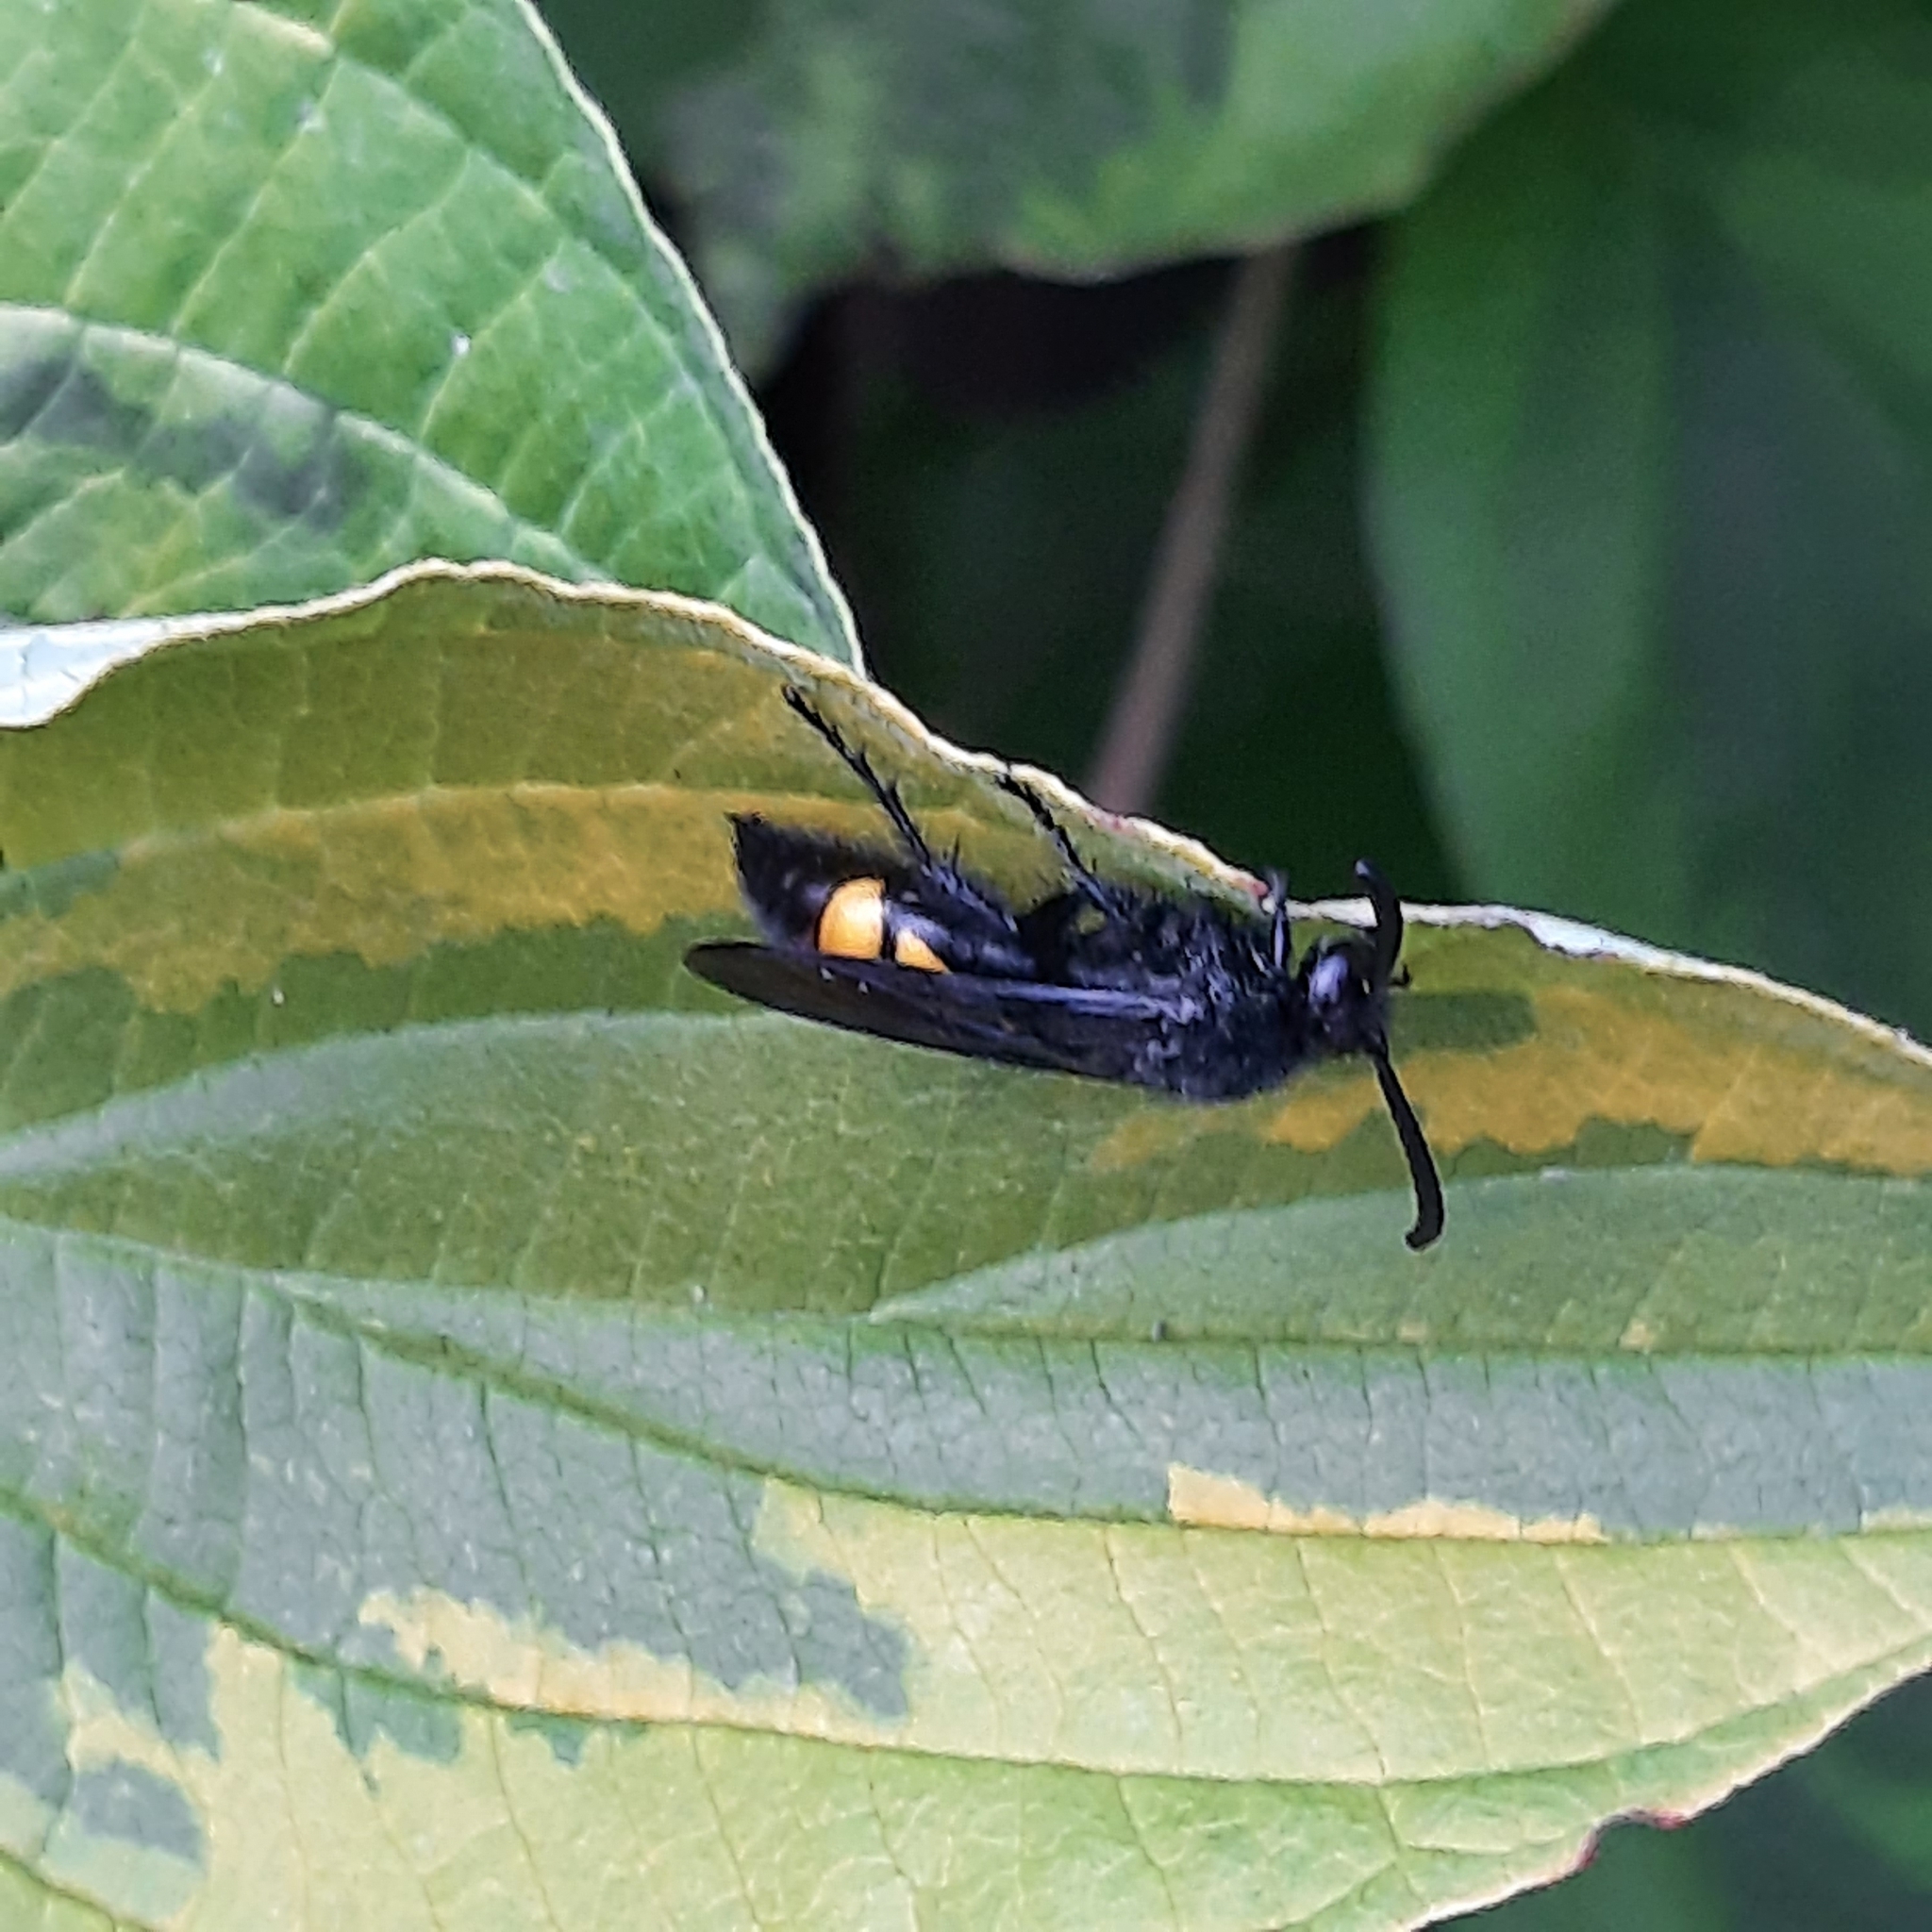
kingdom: Animalia
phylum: Arthropoda
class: Insecta
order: Hymenoptera
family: Scoliidae
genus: Scolia
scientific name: Scolia hirta
